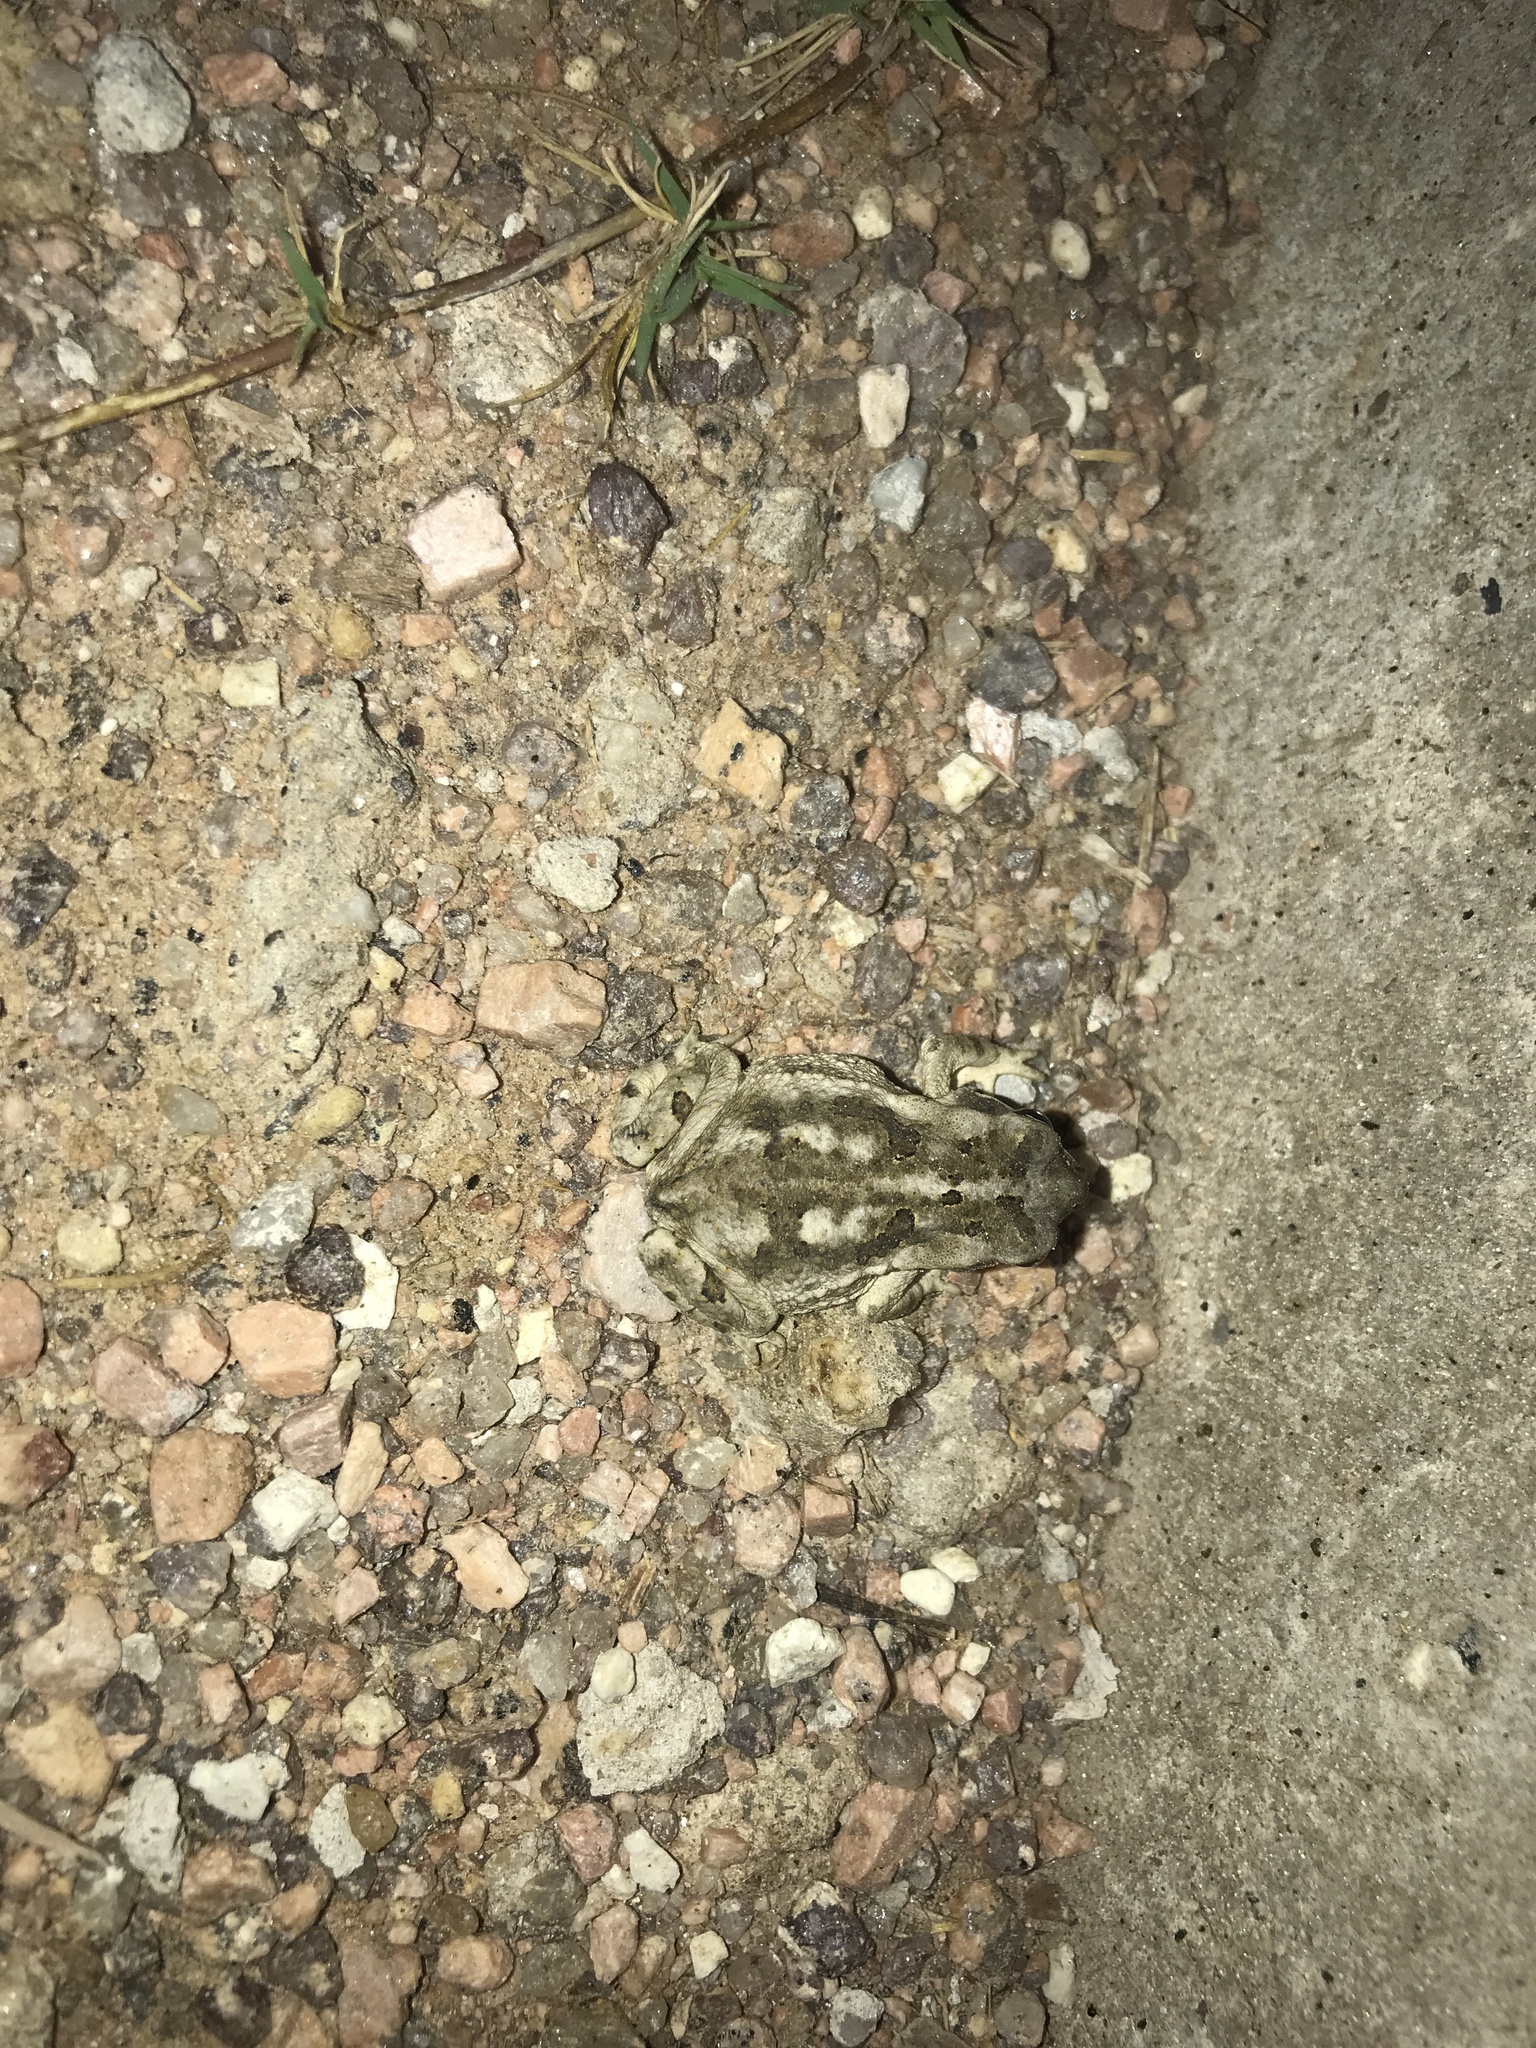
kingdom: Animalia
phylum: Chordata
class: Amphibia
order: Anura
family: Bufonidae
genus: Rhinella
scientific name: Rhinella arenarum
